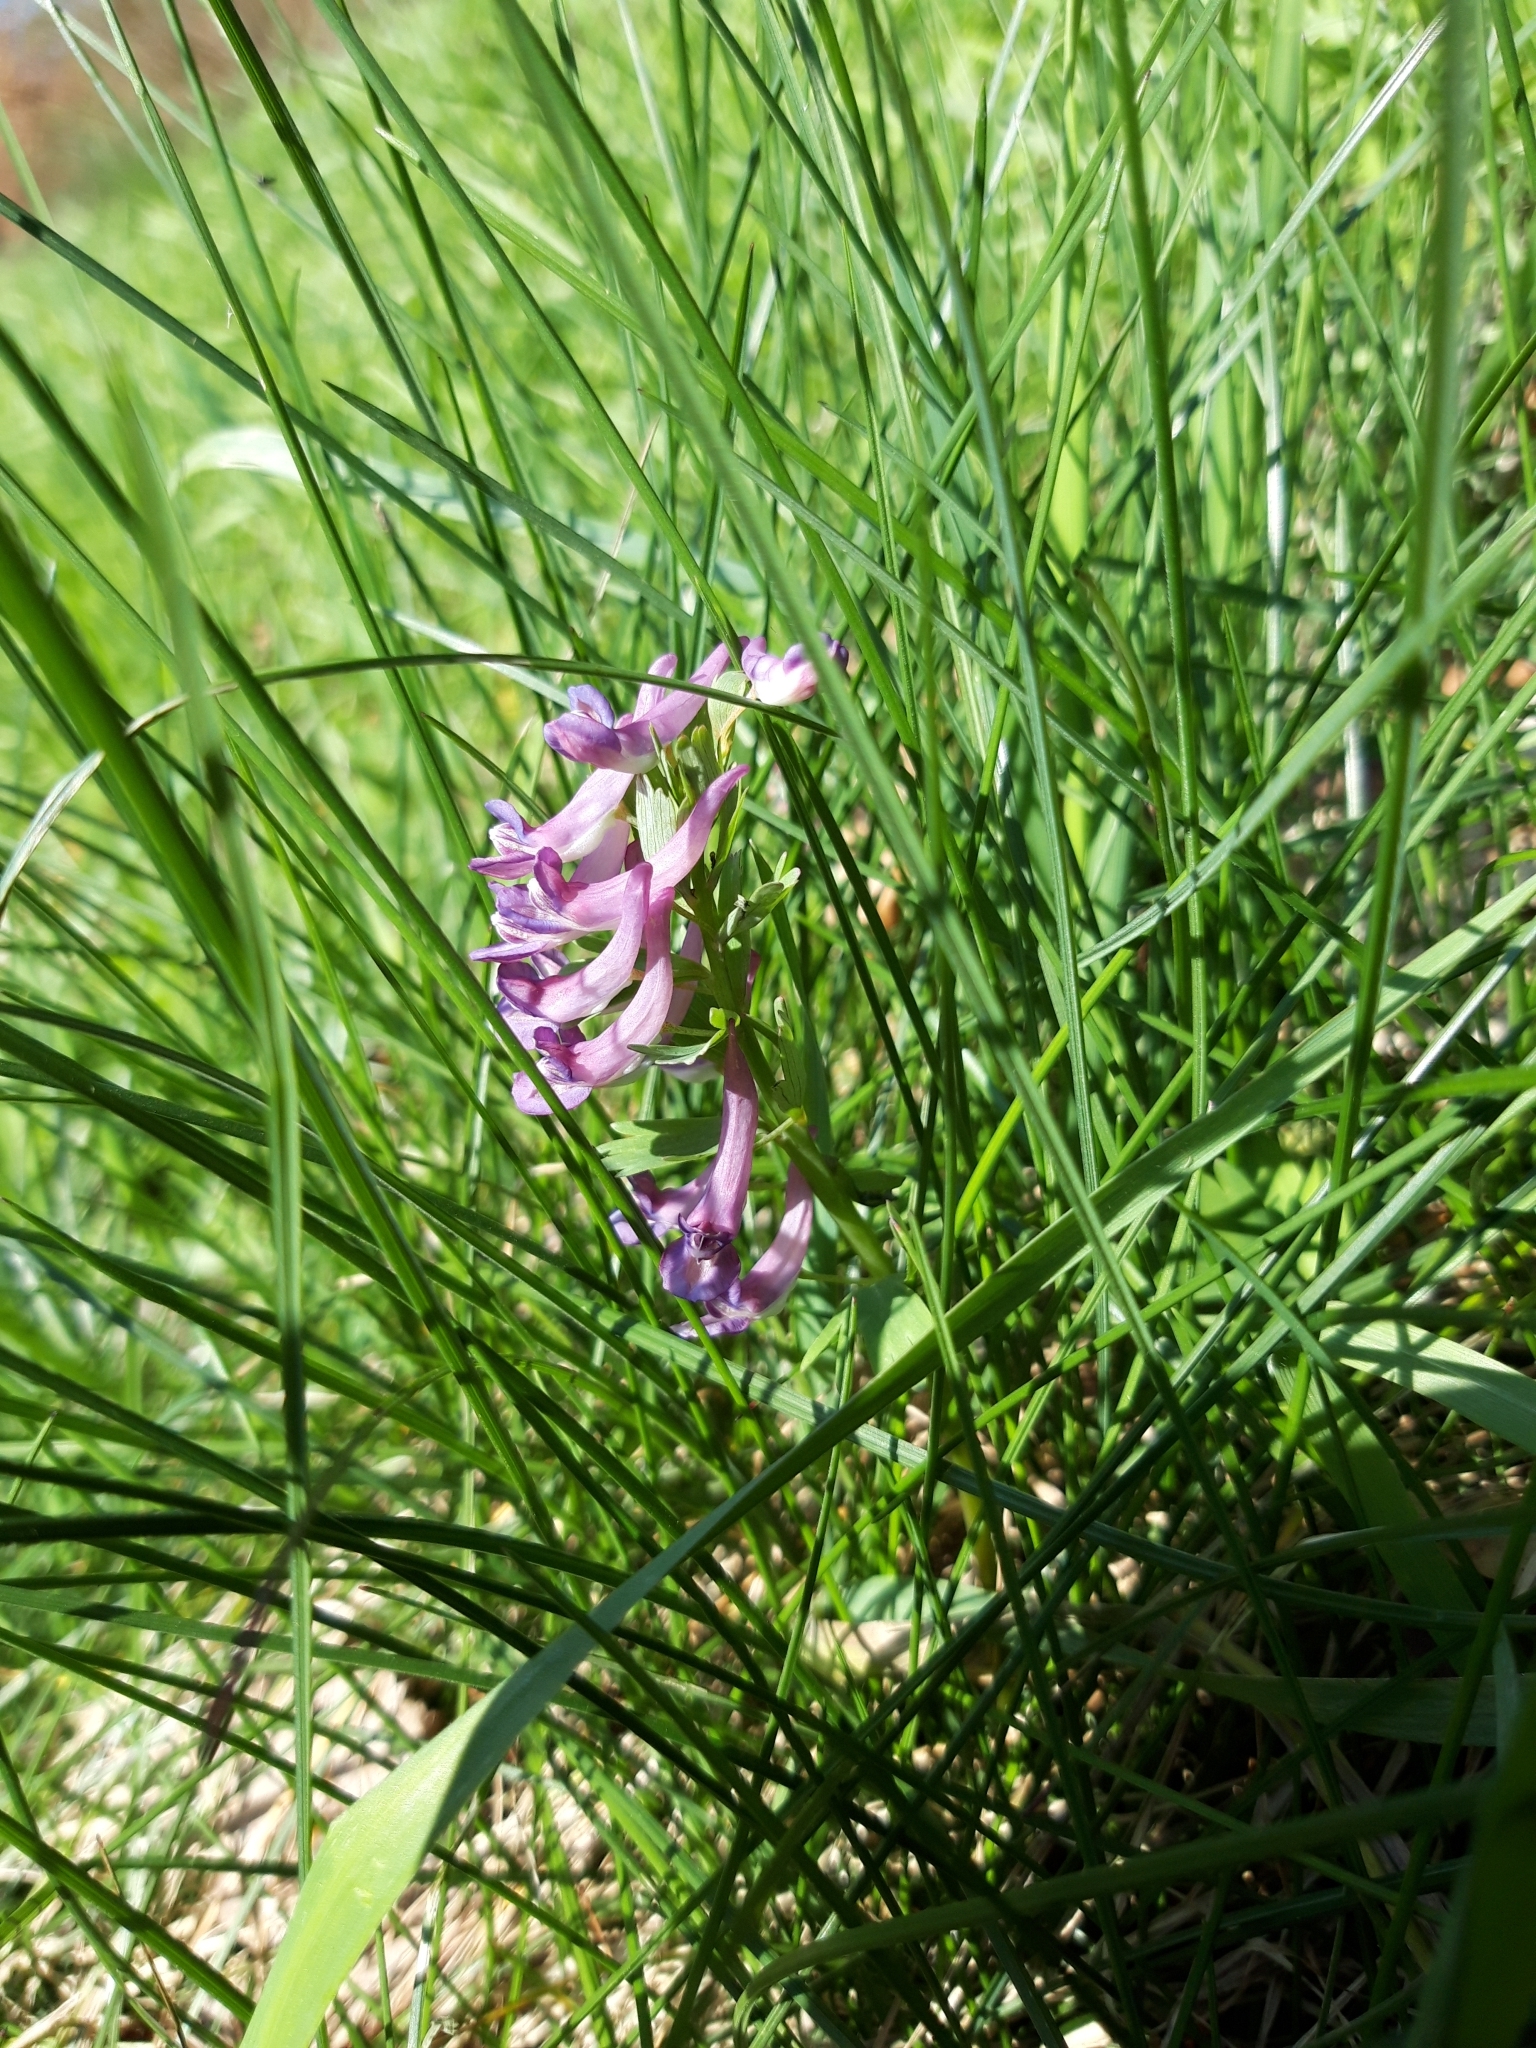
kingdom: Plantae
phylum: Tracheophyta
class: Magnoliopsida
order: Ranunculales
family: Papaveraceae
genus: Corydalis
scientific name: Corydalis solida
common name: Bird-in-a-bush
